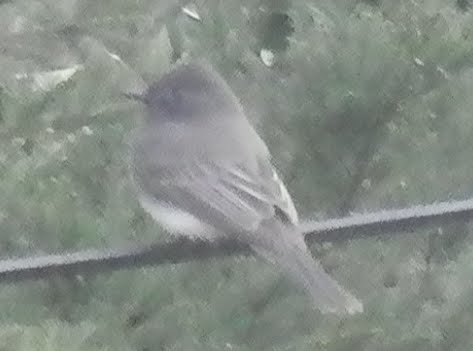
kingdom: Animalia
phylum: Chordata
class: Aves
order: Passeriformes
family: Tyrannidae
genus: Sayornis
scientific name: Sayornis nigricans
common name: Black phoebe
